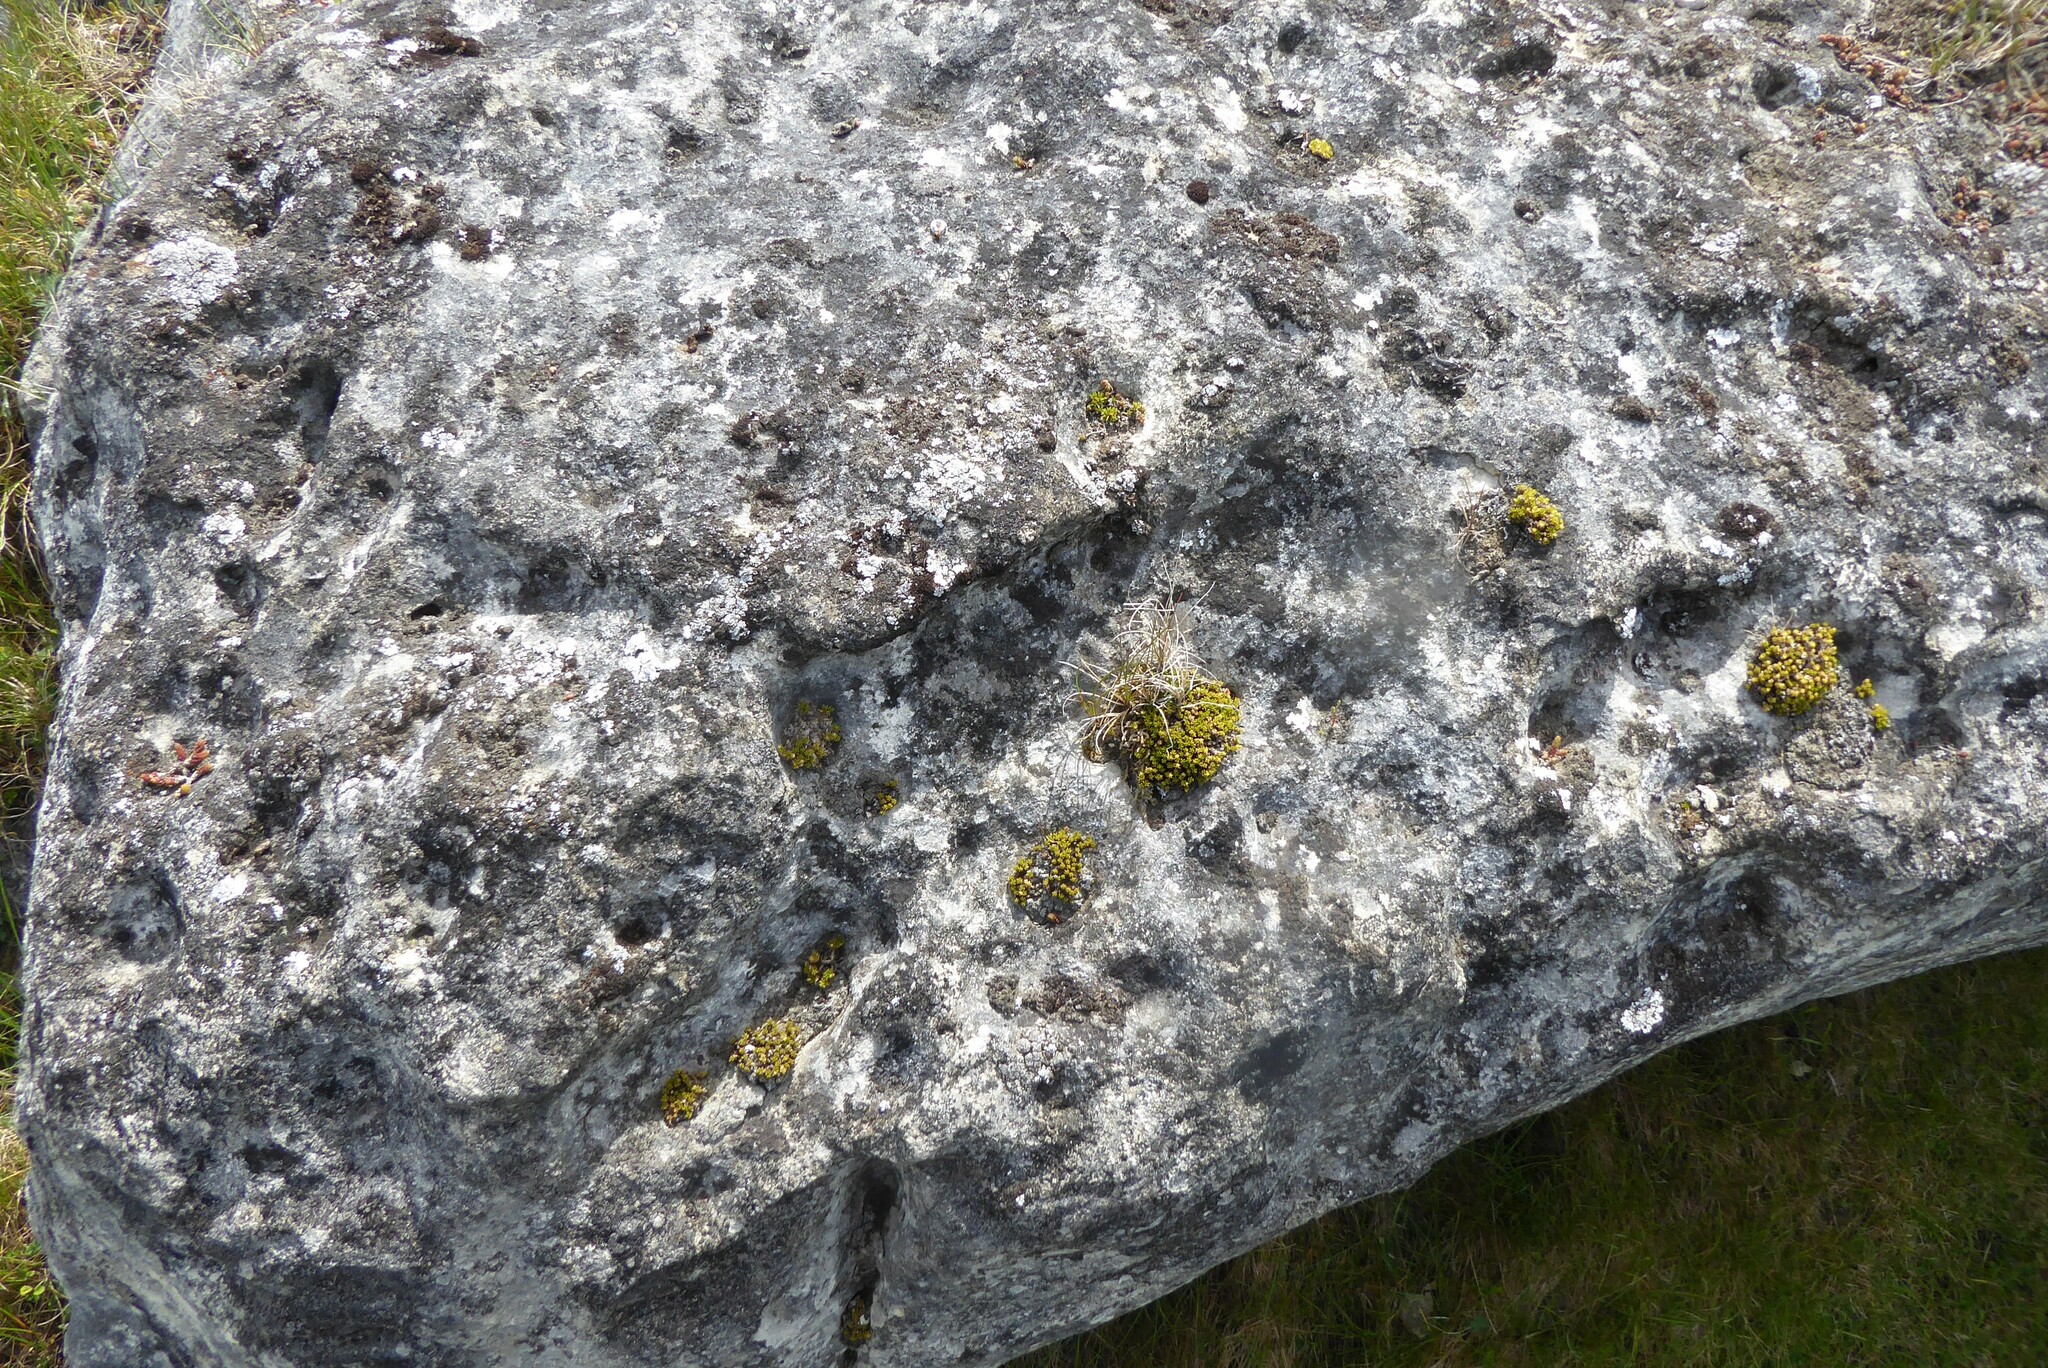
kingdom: Plantae
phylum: Tracheophyta
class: Magnoliopsida
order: Caryophyllales
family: Caryophyllaceae
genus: Colobanthus
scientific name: Colobanthus brevisepalus
